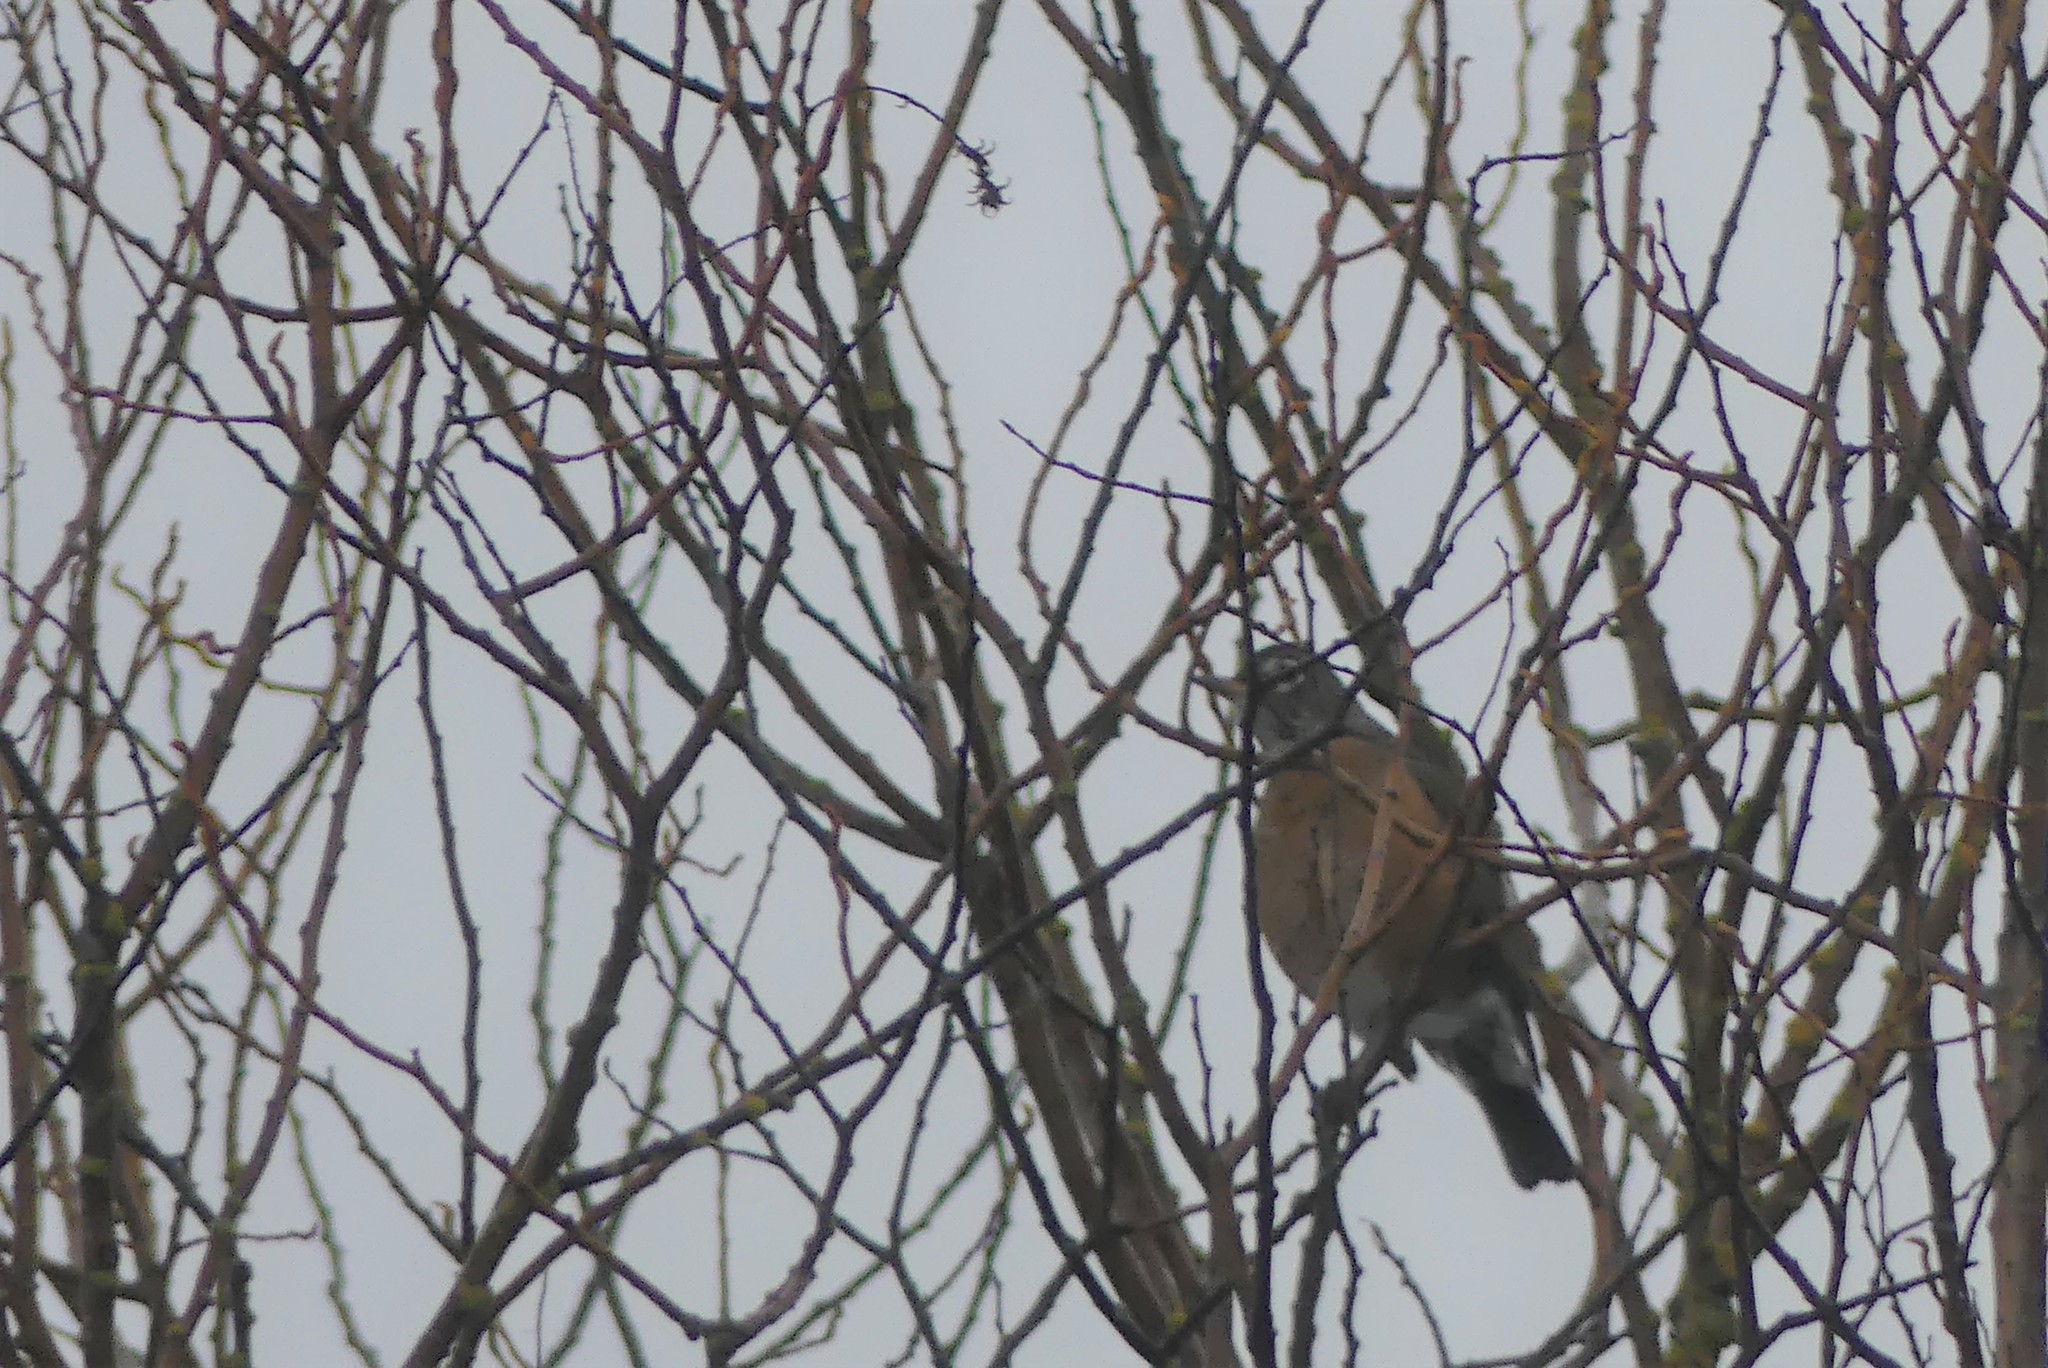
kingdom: Animalia
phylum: Chordata
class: Aves
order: Passeriformes
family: Turdidae
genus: Turdus
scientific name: Turdus migratorius
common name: American robin
